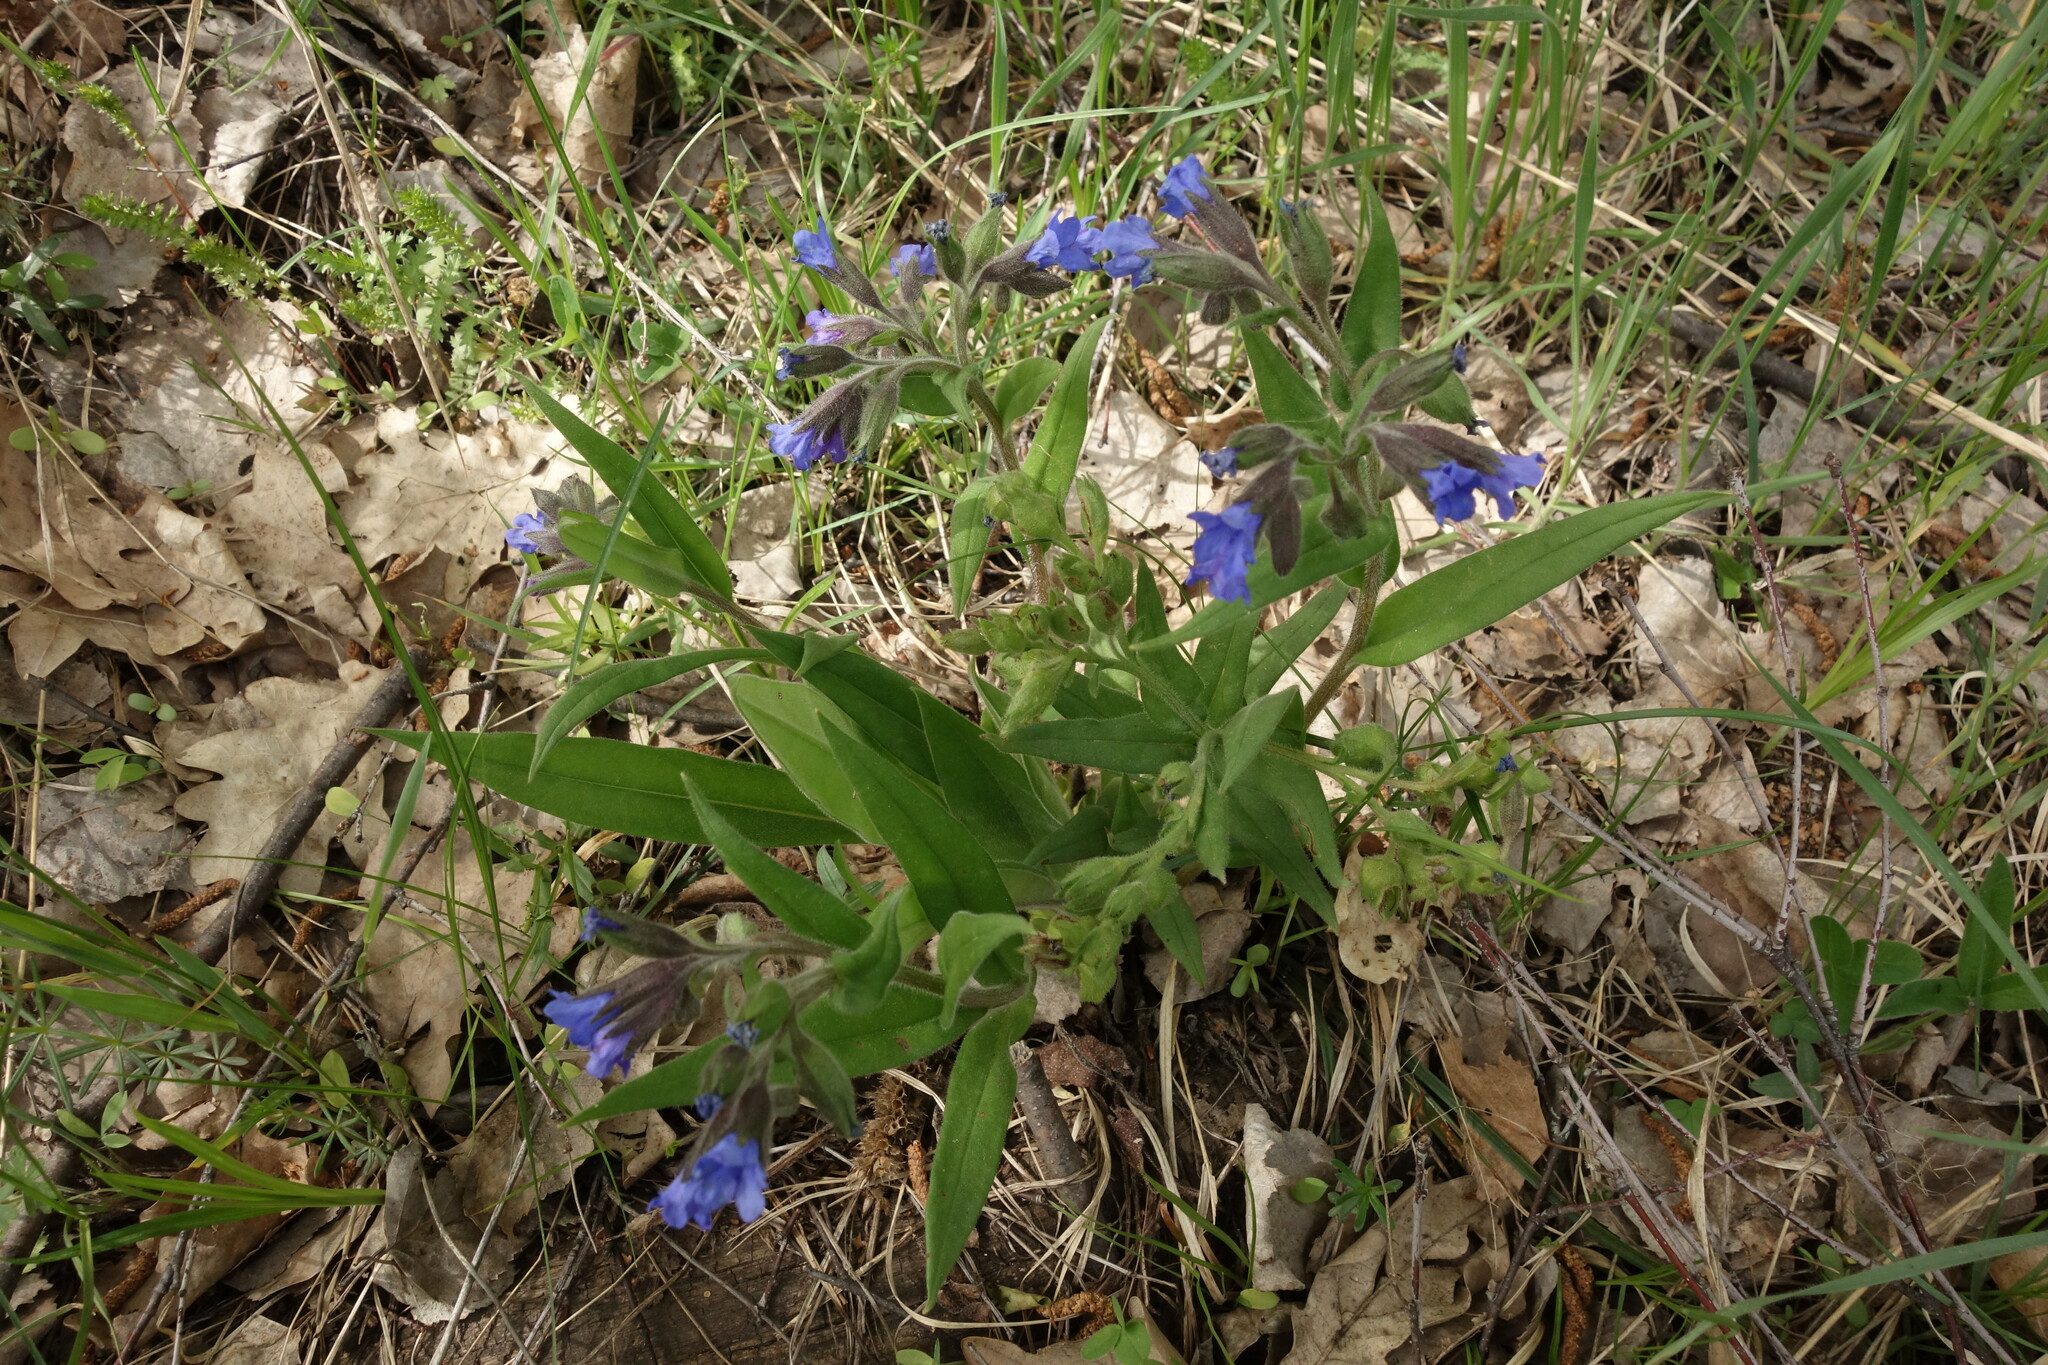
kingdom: Plantae
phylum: Tracheophyta
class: Magnoliopsida
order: Boraginales
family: Boraginaceae
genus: Pulmonaria
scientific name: Pulmonaria angustifolia
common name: Blue cowslip
